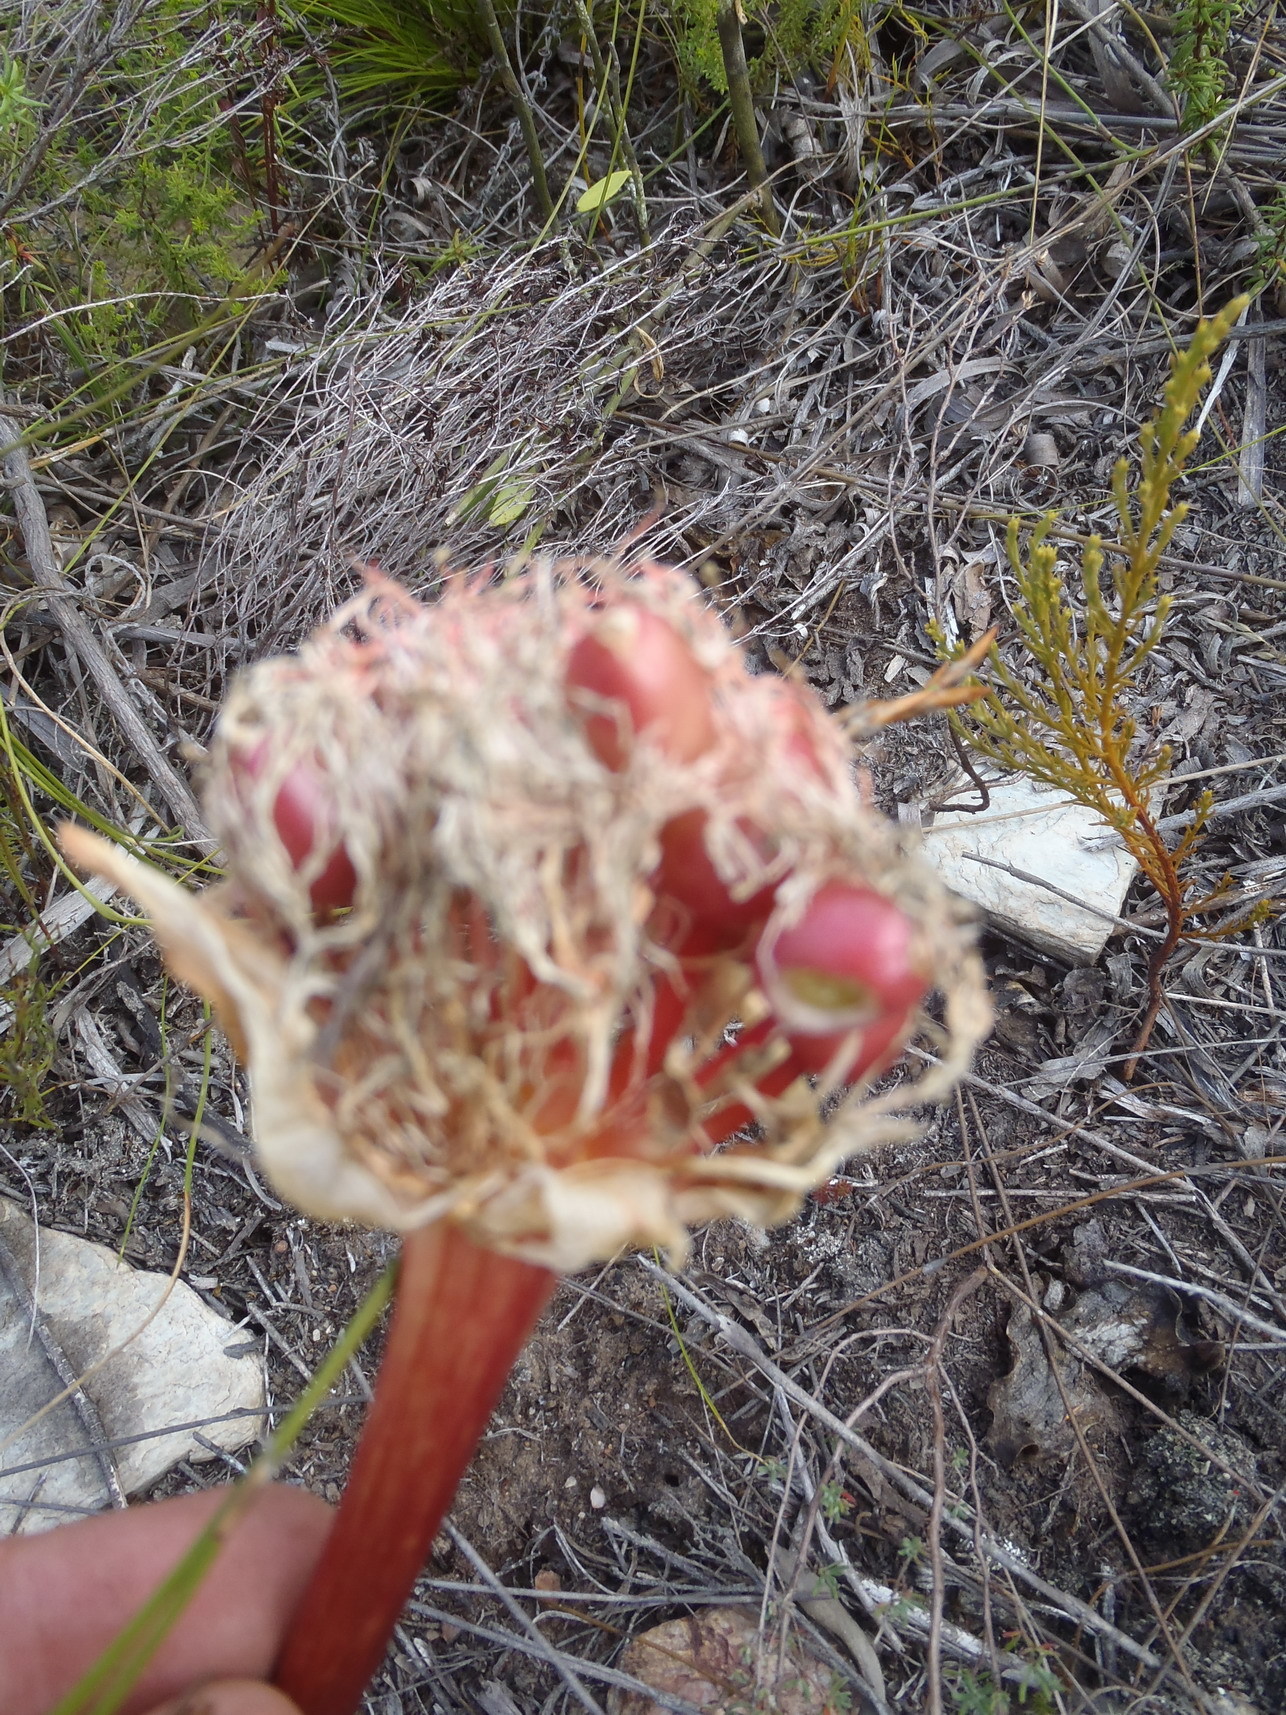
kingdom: Plantae
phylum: Tracheophyta
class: Liliopsida
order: Asparagales
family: Amaryllidaceae
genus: Haemanthus
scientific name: Haemanthus sanguineus
